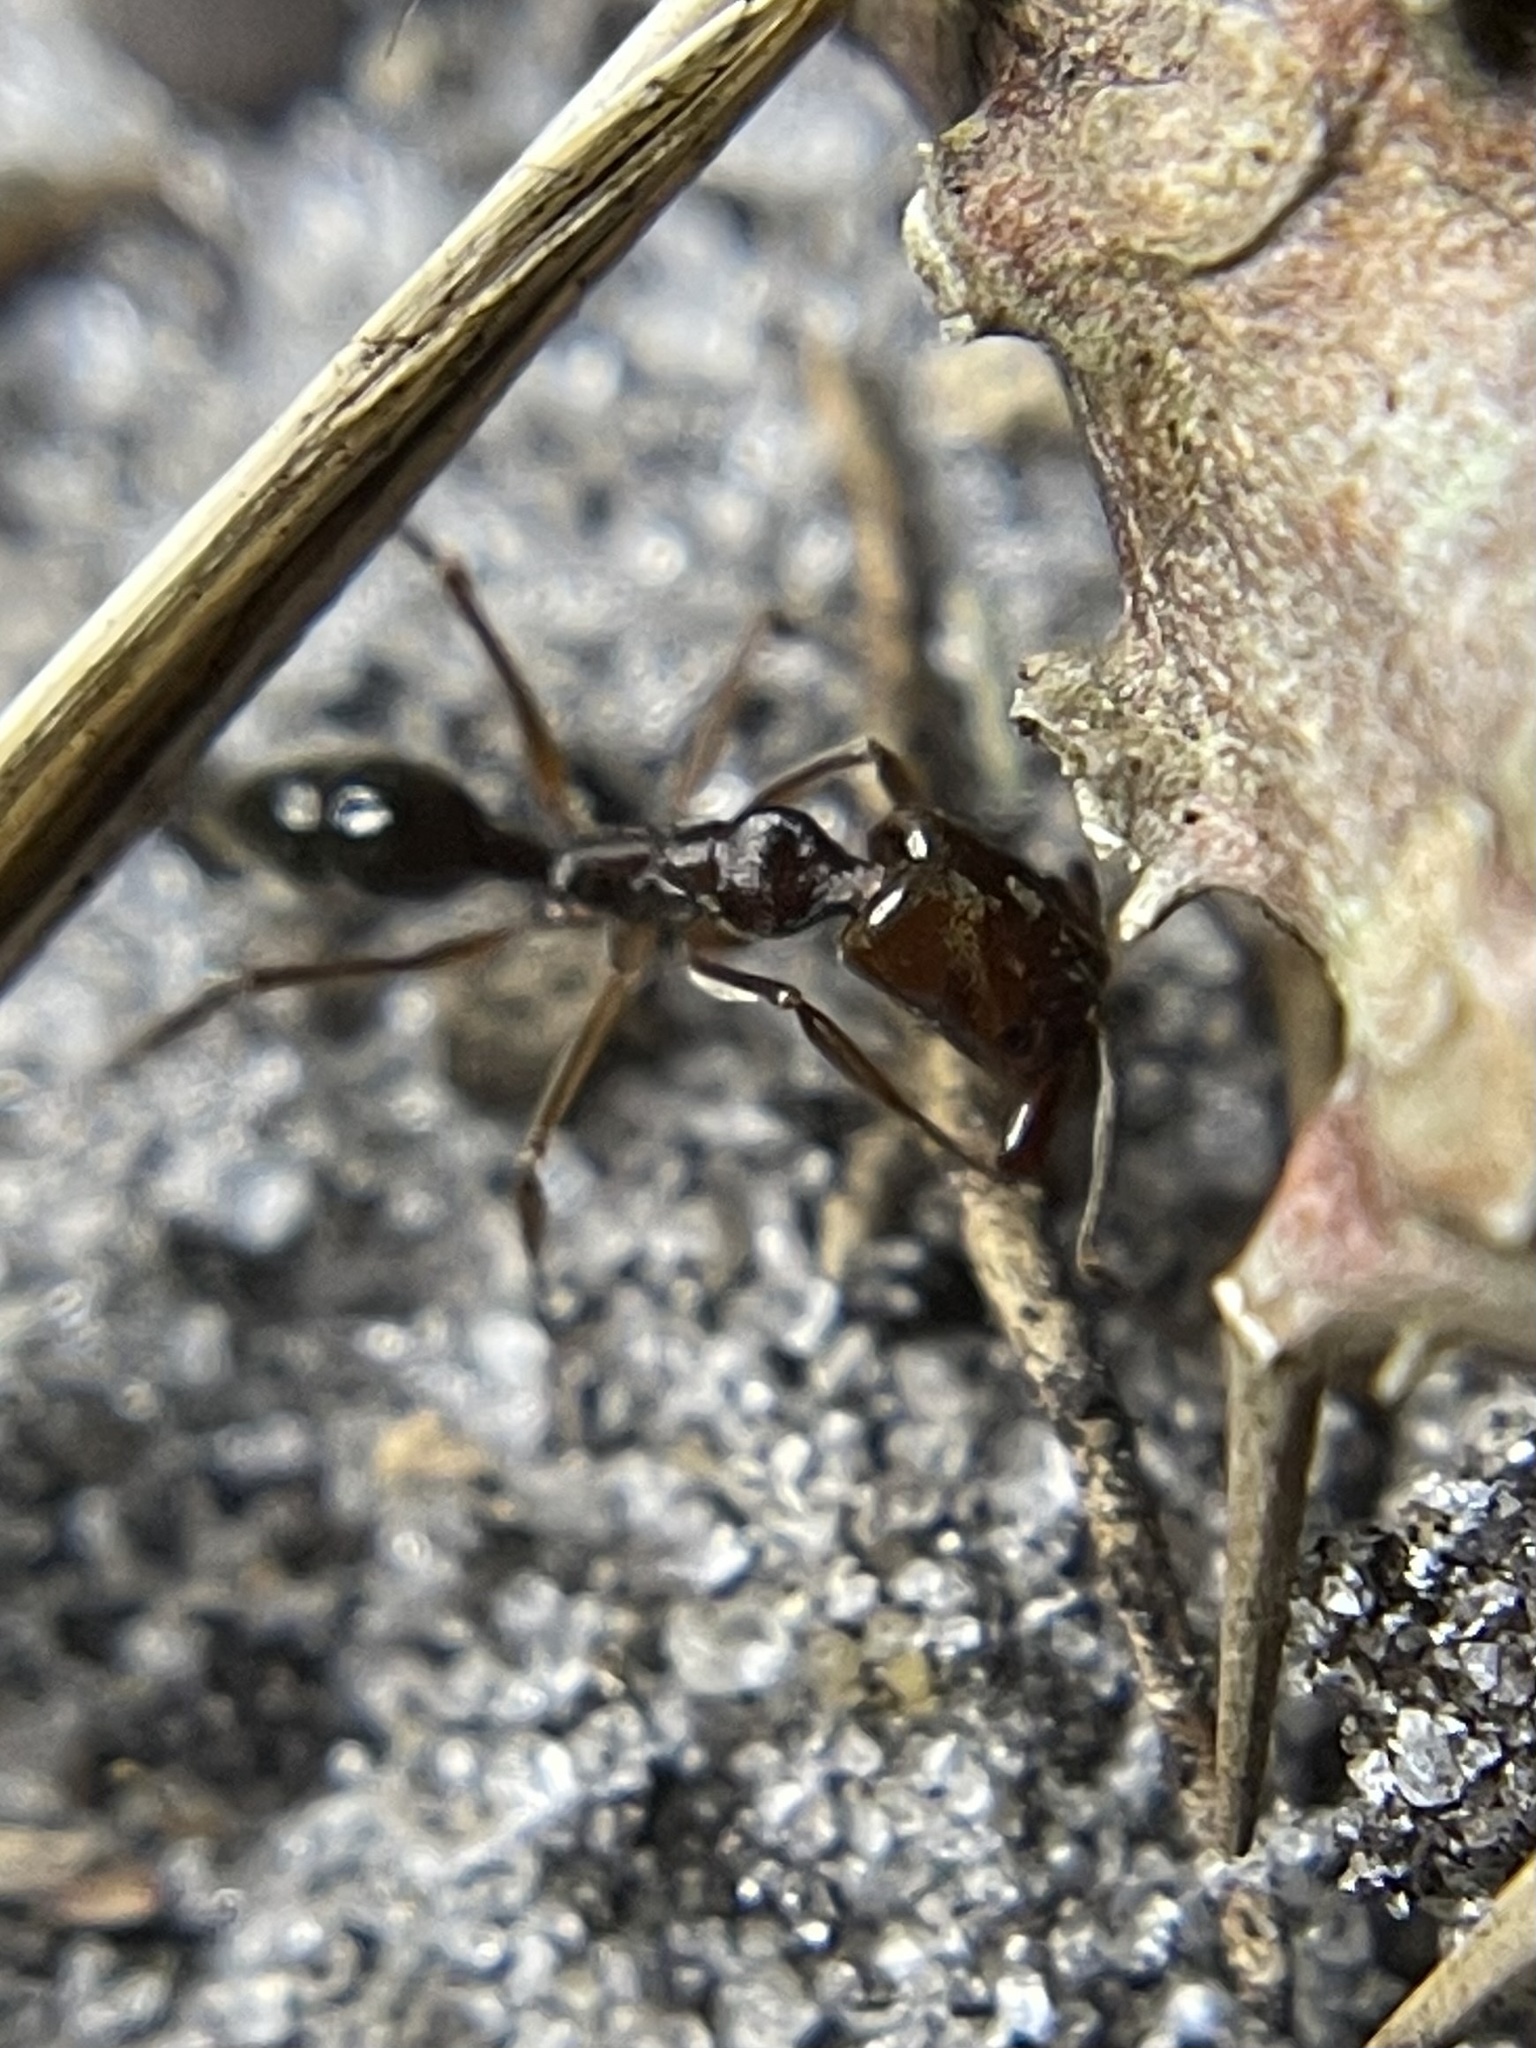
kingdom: Animalia
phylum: Arthropoda
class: Insecta
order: Hymenoptera
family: Formicidae
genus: Odontomachus
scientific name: Odontomachus brunneus
